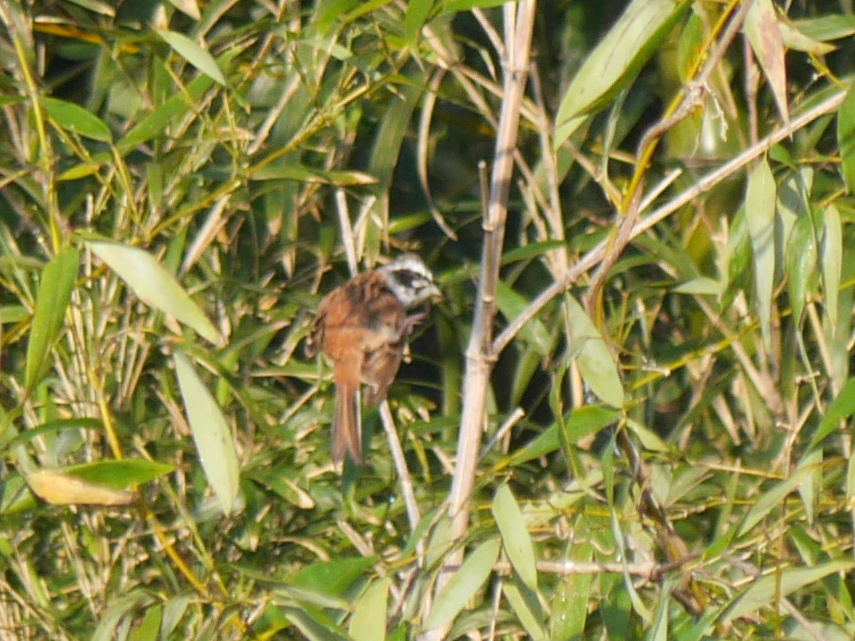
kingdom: Animalia
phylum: Chordata
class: Aves
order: Passeriformes
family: Emberizidae
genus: Emberiza
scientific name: Emberiza cioides
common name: Meadow bunting
